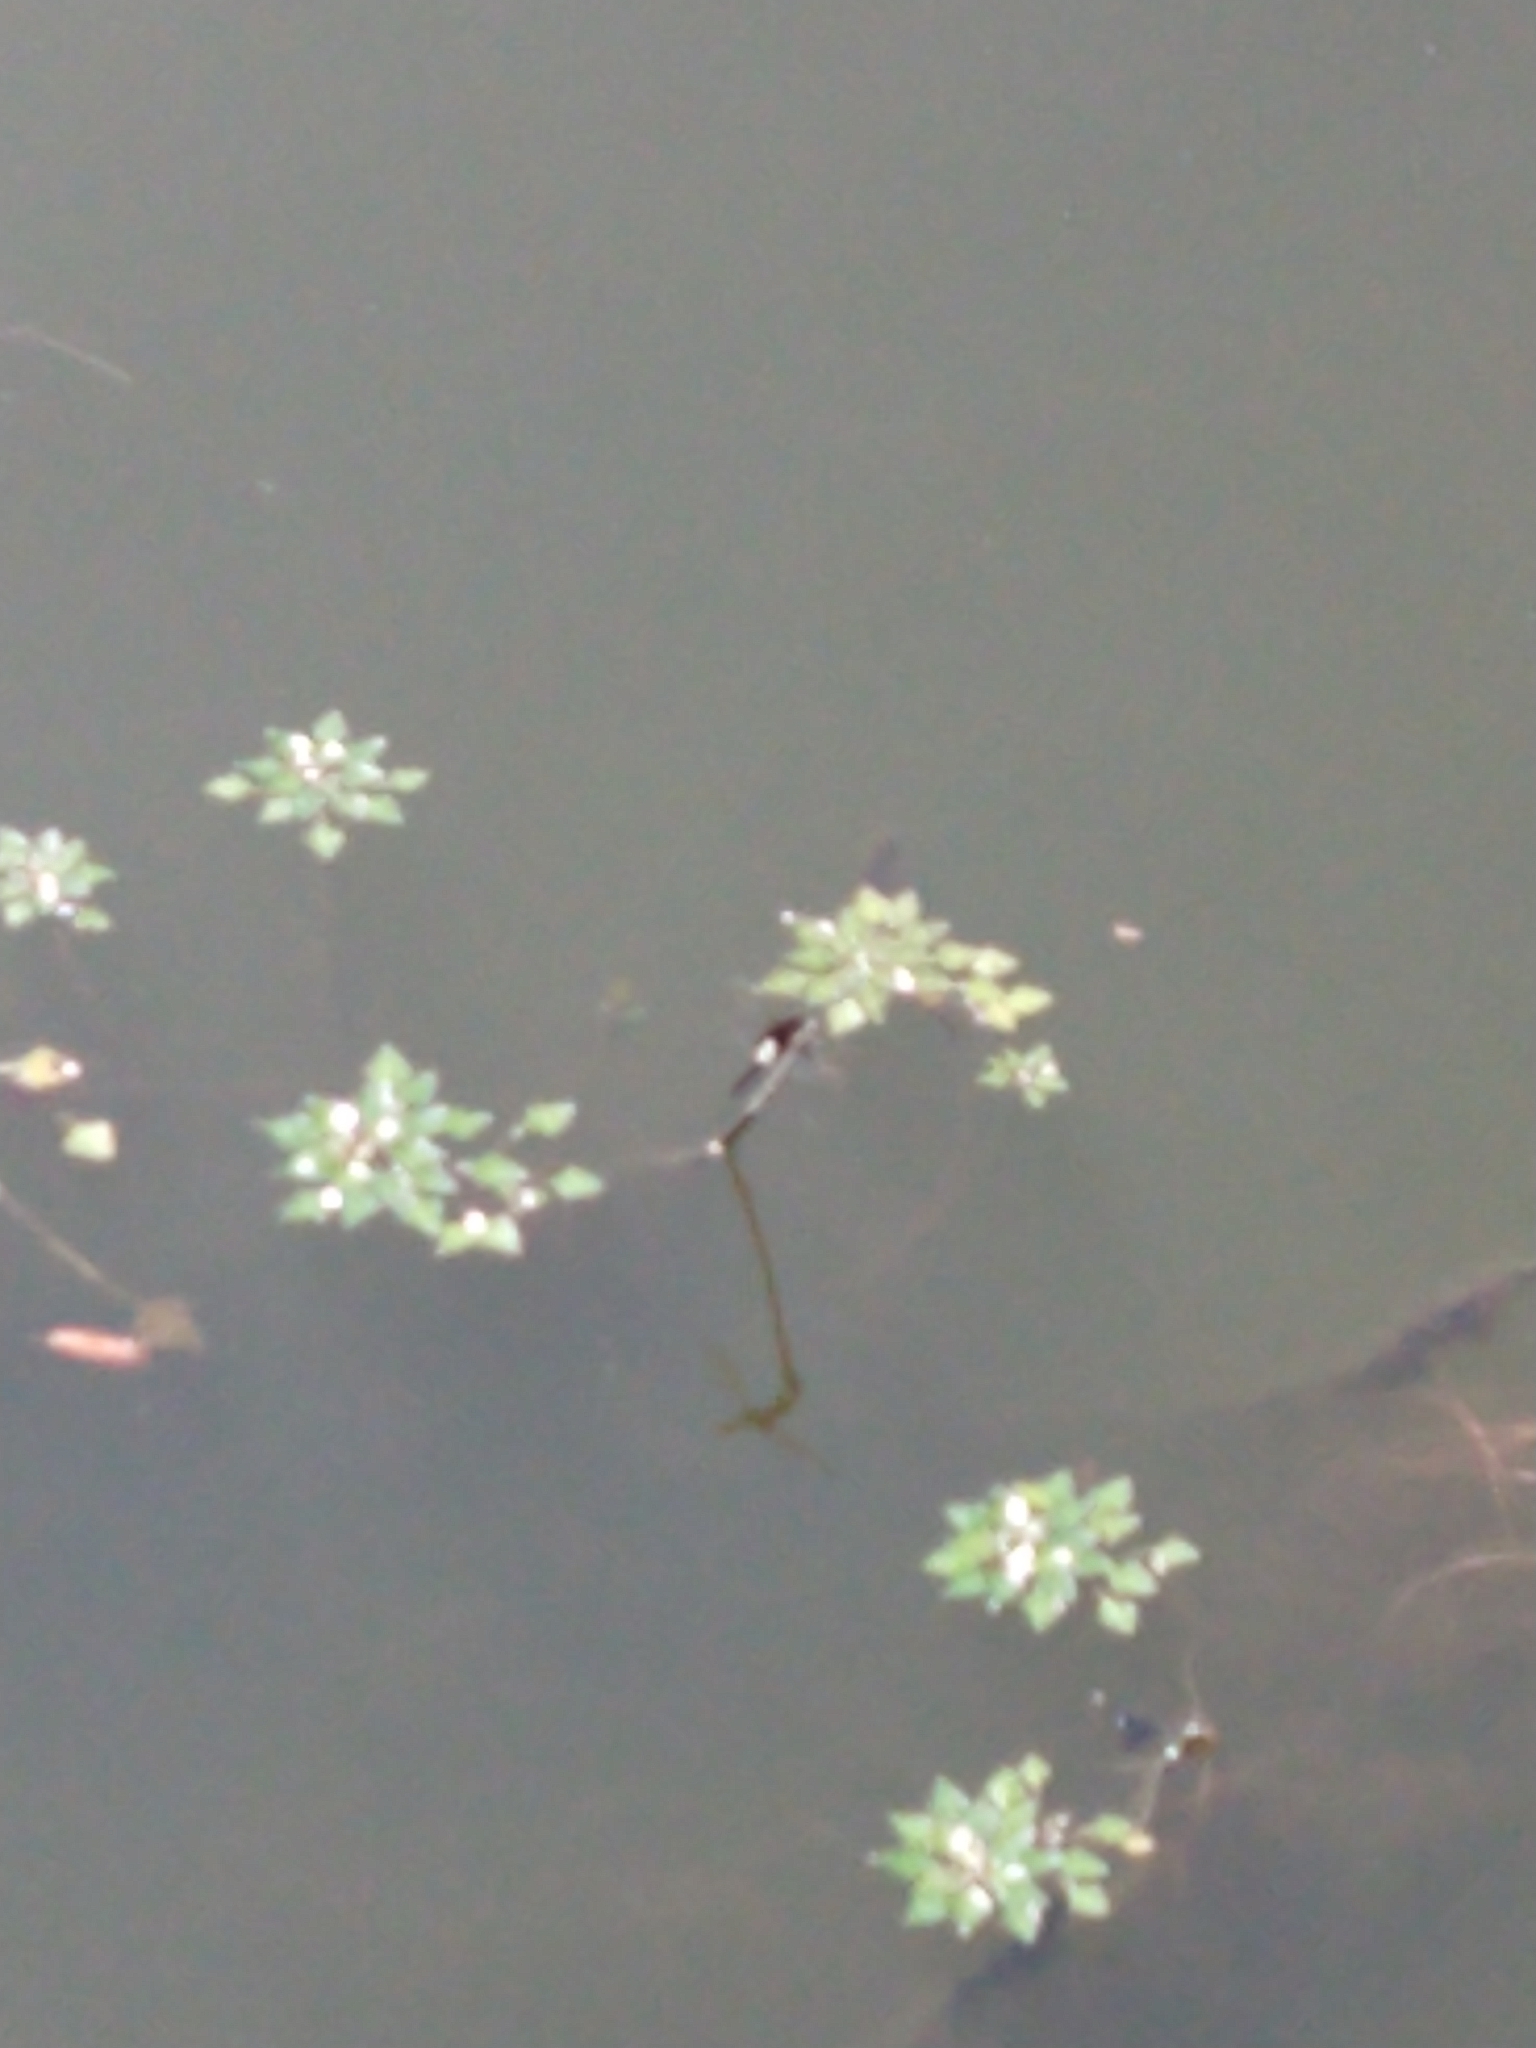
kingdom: Animalia
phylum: Arthropoda
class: Insecta
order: Odonata
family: Libellulidae
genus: Pseudothemis
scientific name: Pseudothemis zonata
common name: Pied skimmer
